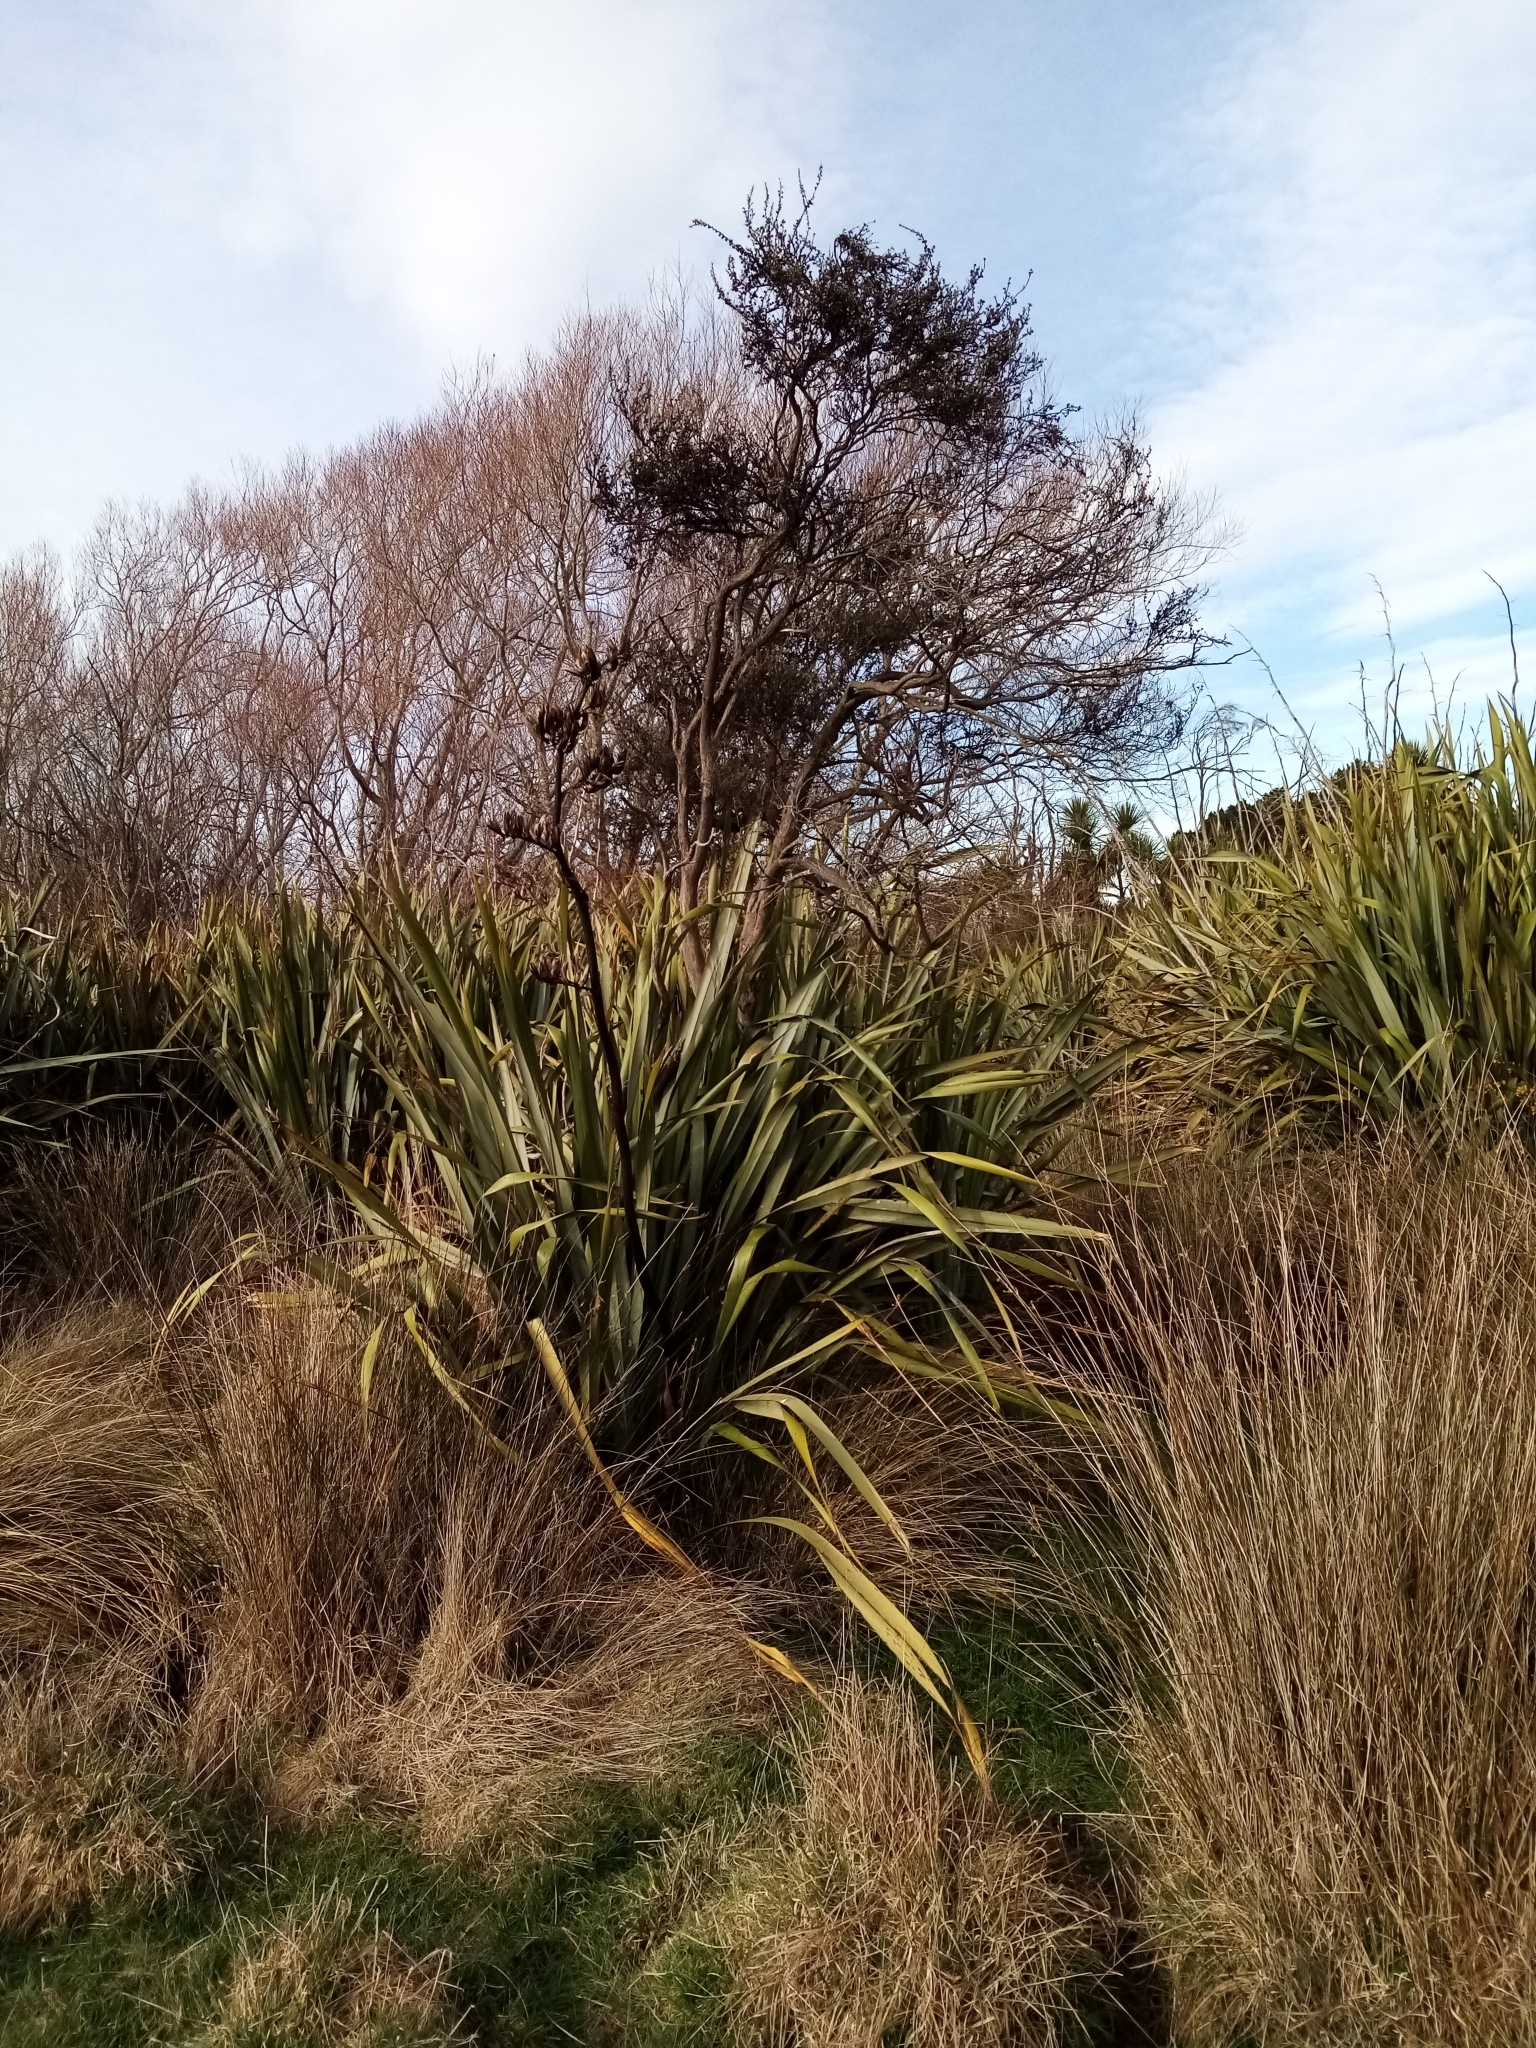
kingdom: Plantae
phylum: Tracheophyta
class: Magnoliopsida
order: Myrtales
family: Myrtaceae
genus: Leptospermum
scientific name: Leptospermum scoparium
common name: Broom tea-tree
